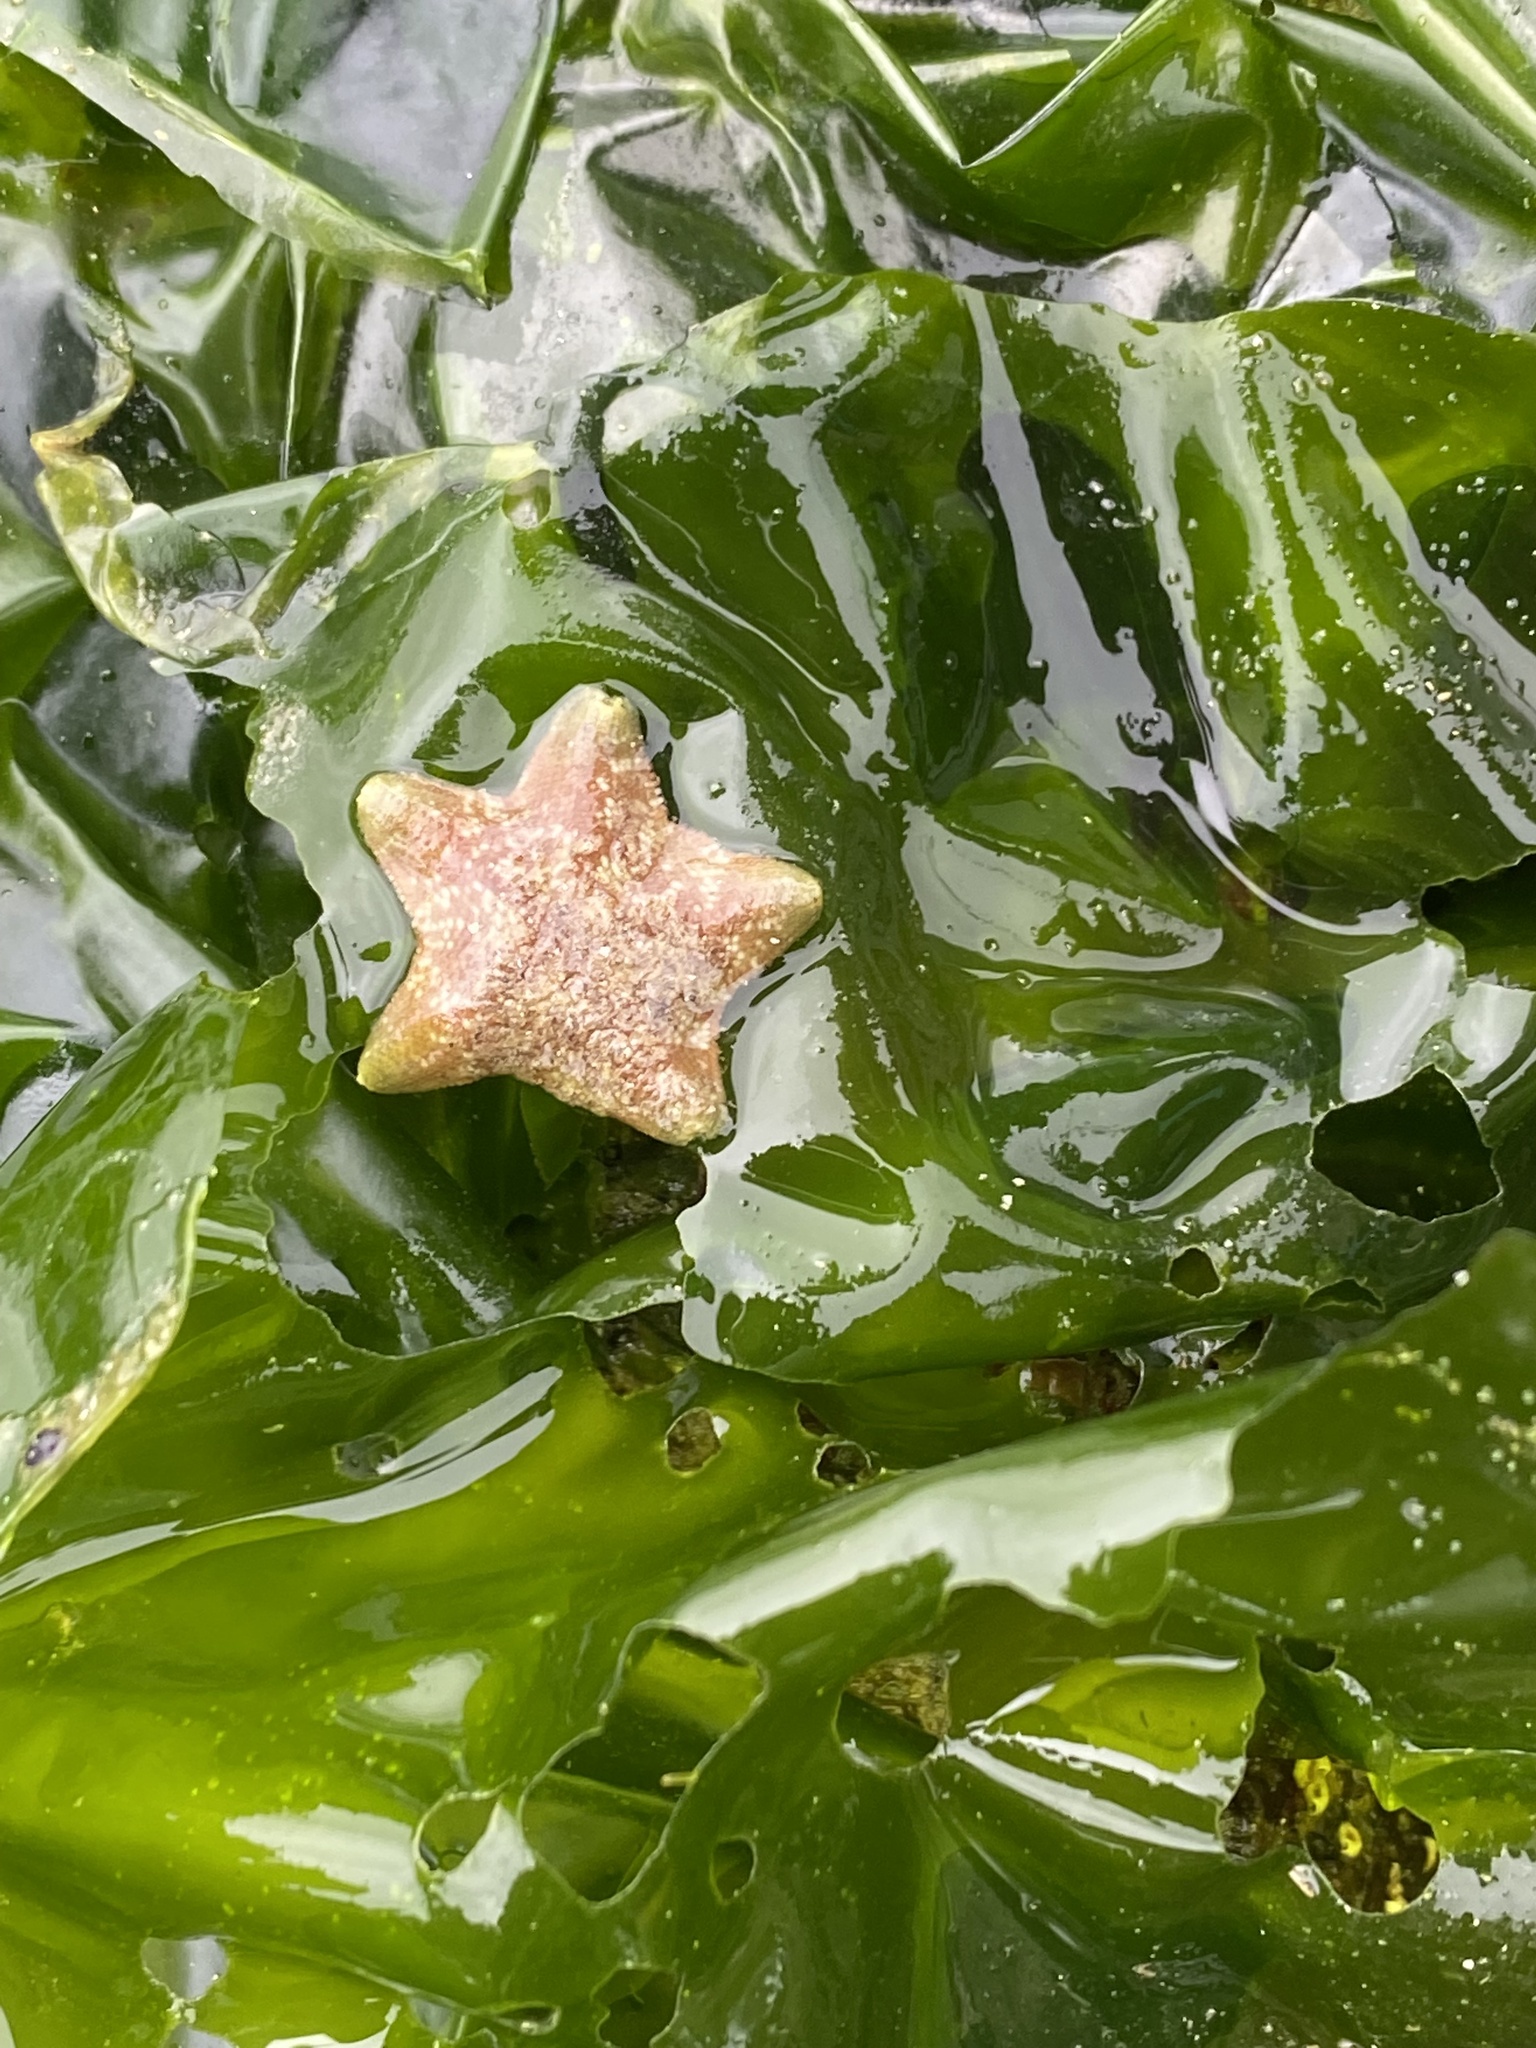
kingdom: Animalia
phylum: Echinodermata
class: Asteroidea
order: Valvatida
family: Asterinidae
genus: Patiria
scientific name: Patiria chilensis
